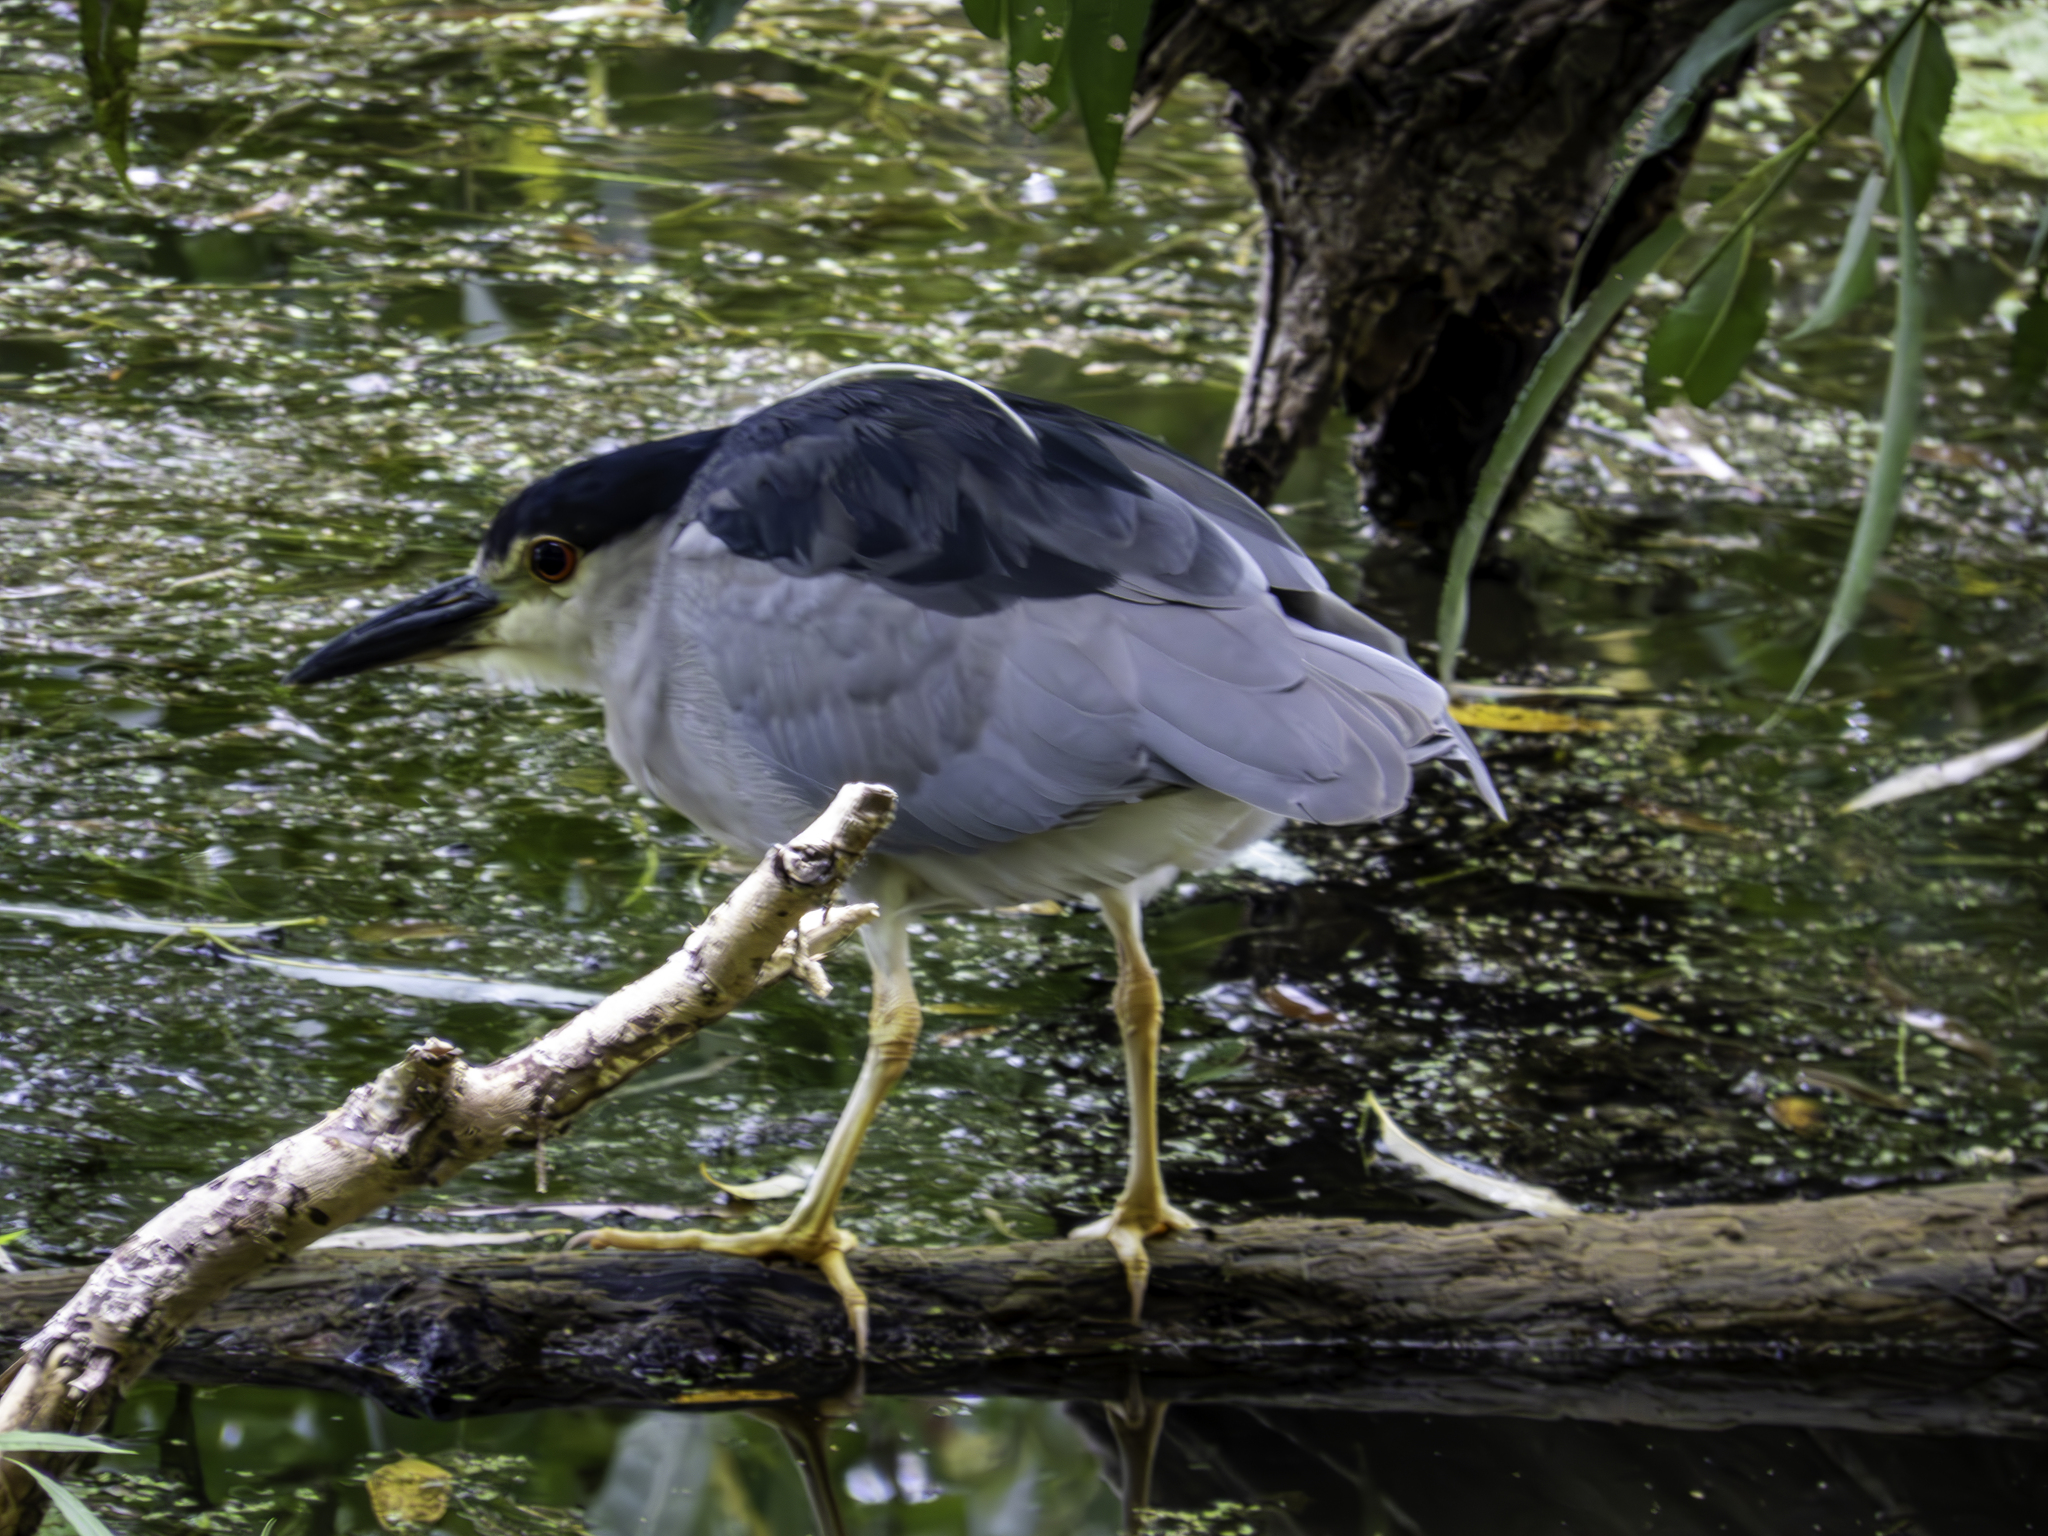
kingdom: Animalia
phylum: Chordata
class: Aves
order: Pelecaniformes
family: Ardeidae
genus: Nycticorax
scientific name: Nycticorax nycticorax
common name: Black-crowned night heron
